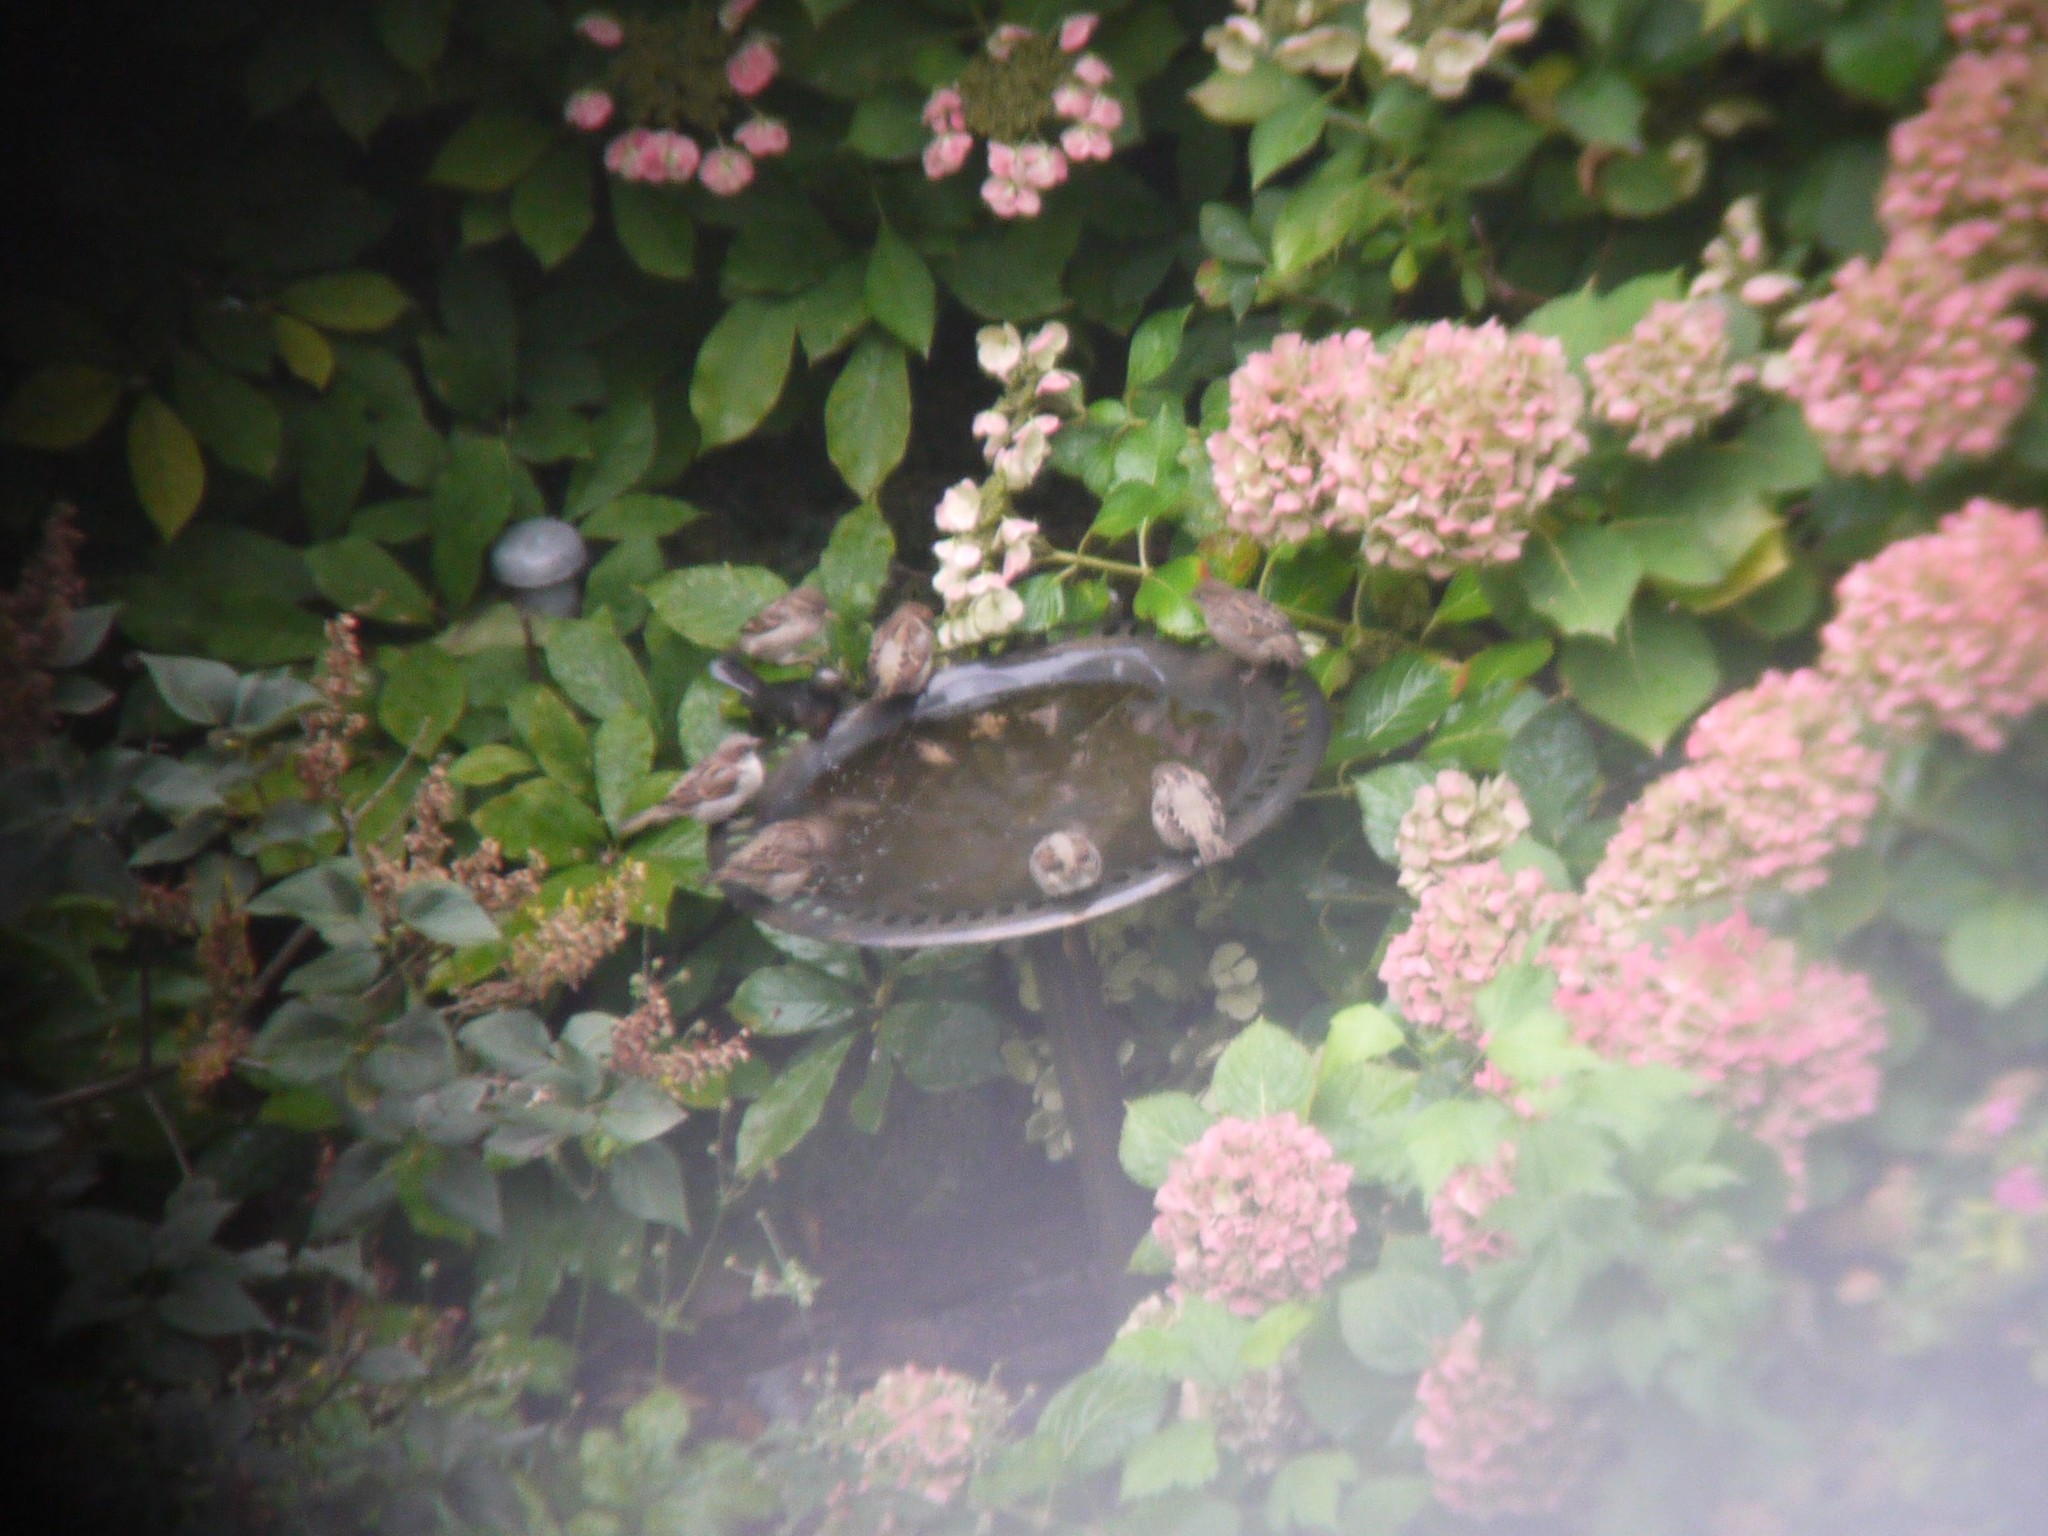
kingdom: Animalia
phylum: Chordata
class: Aves
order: Passeriformes
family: Passeridae
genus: Passer
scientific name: Passer domesticus
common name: House sparrow
